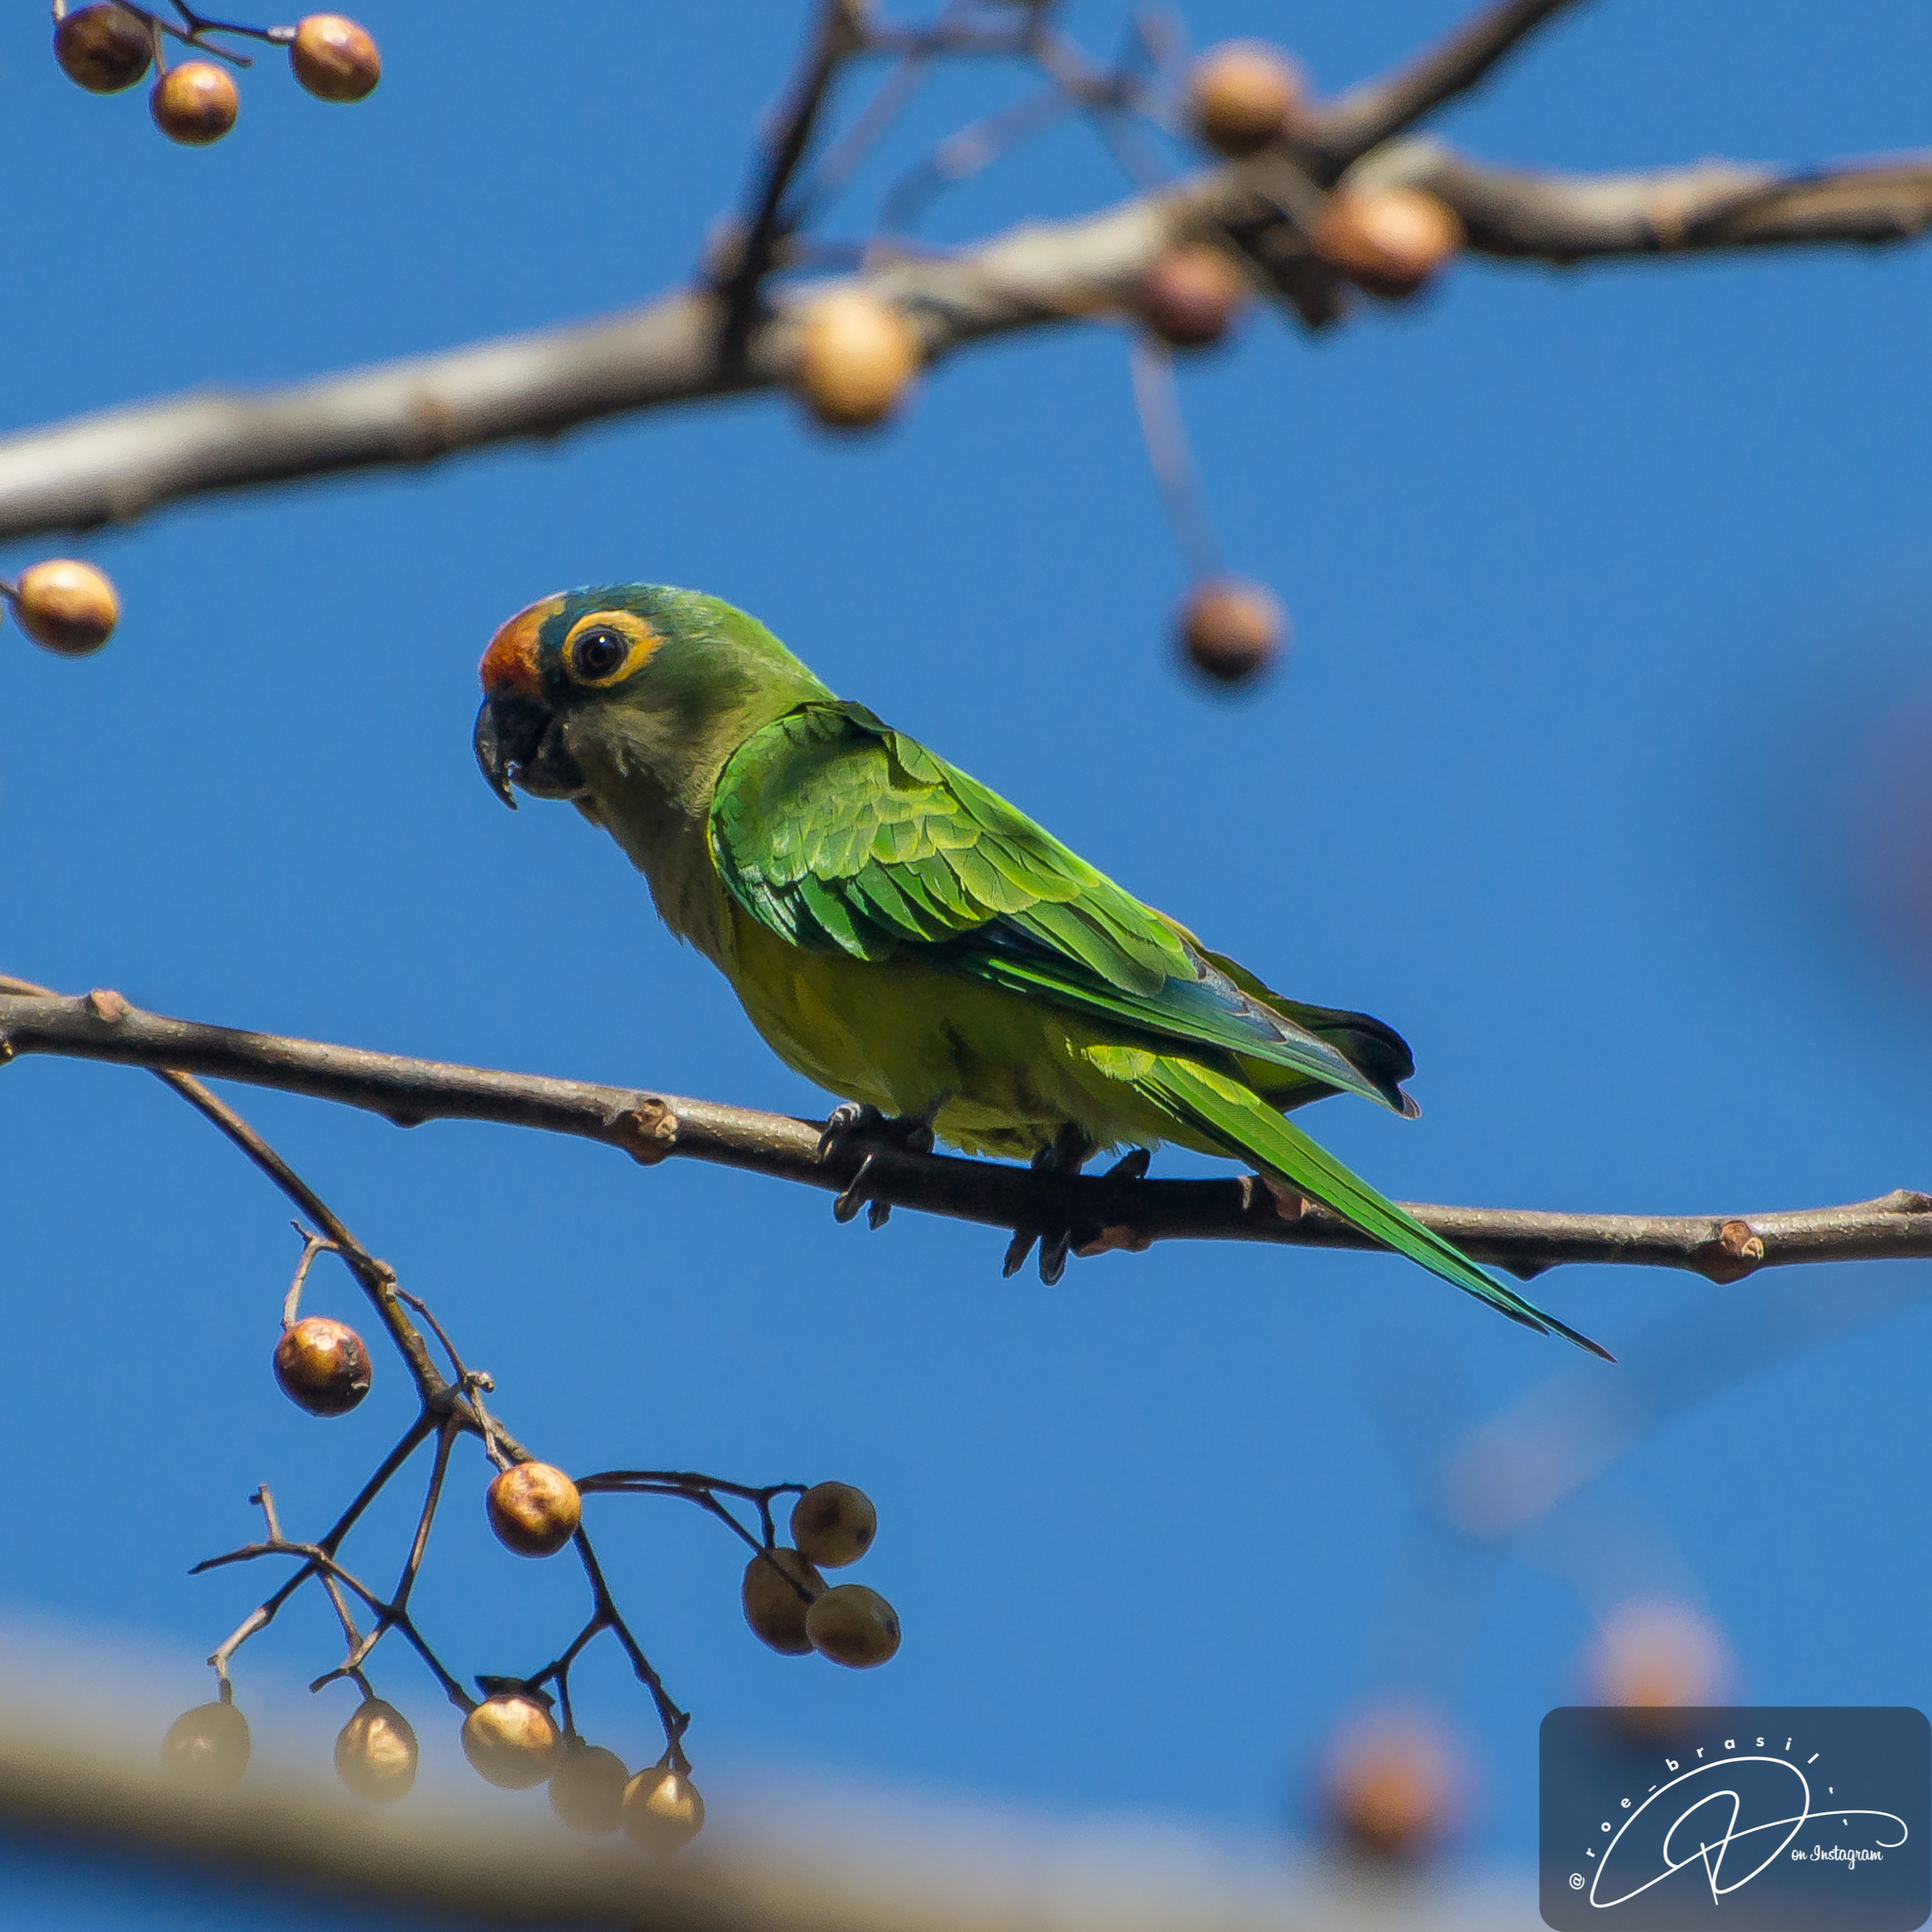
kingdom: Animalia
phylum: Chordata
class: Aves
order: Psittaciformes
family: Psittacidae
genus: Aratinga
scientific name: Aratinga aurea
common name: Peach-fronted parakeet
